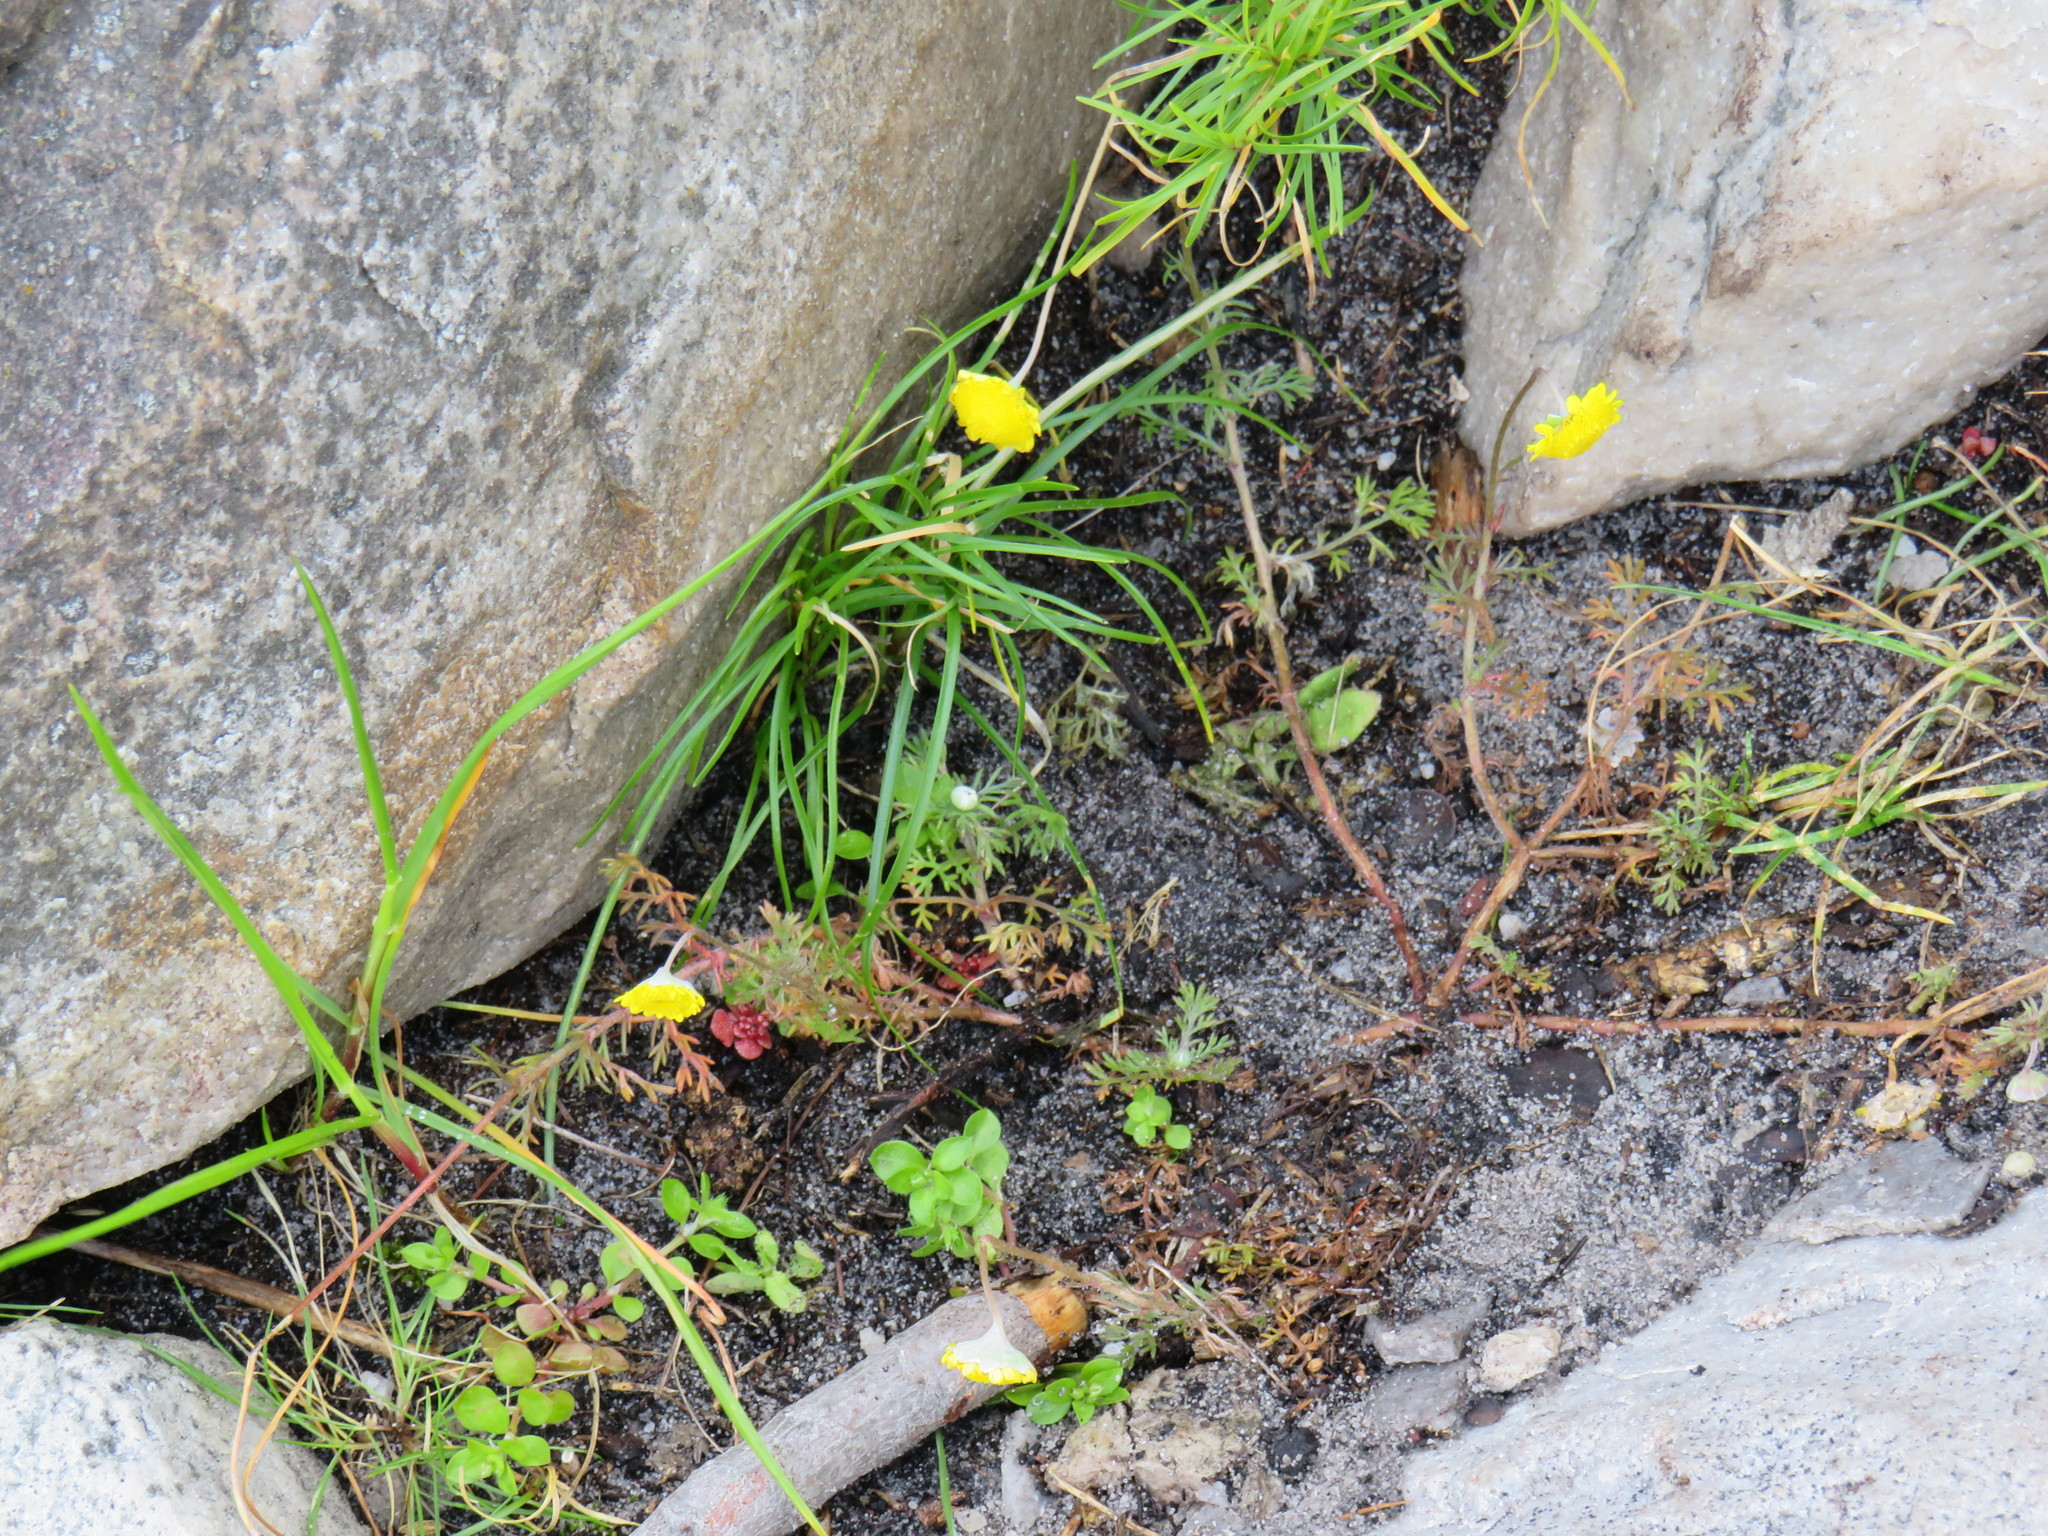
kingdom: Plantae
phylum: Tracheophyta
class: Magnoliopsida
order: Asterales
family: Asteraceae
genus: Cotula
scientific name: Cotula pruinosa
